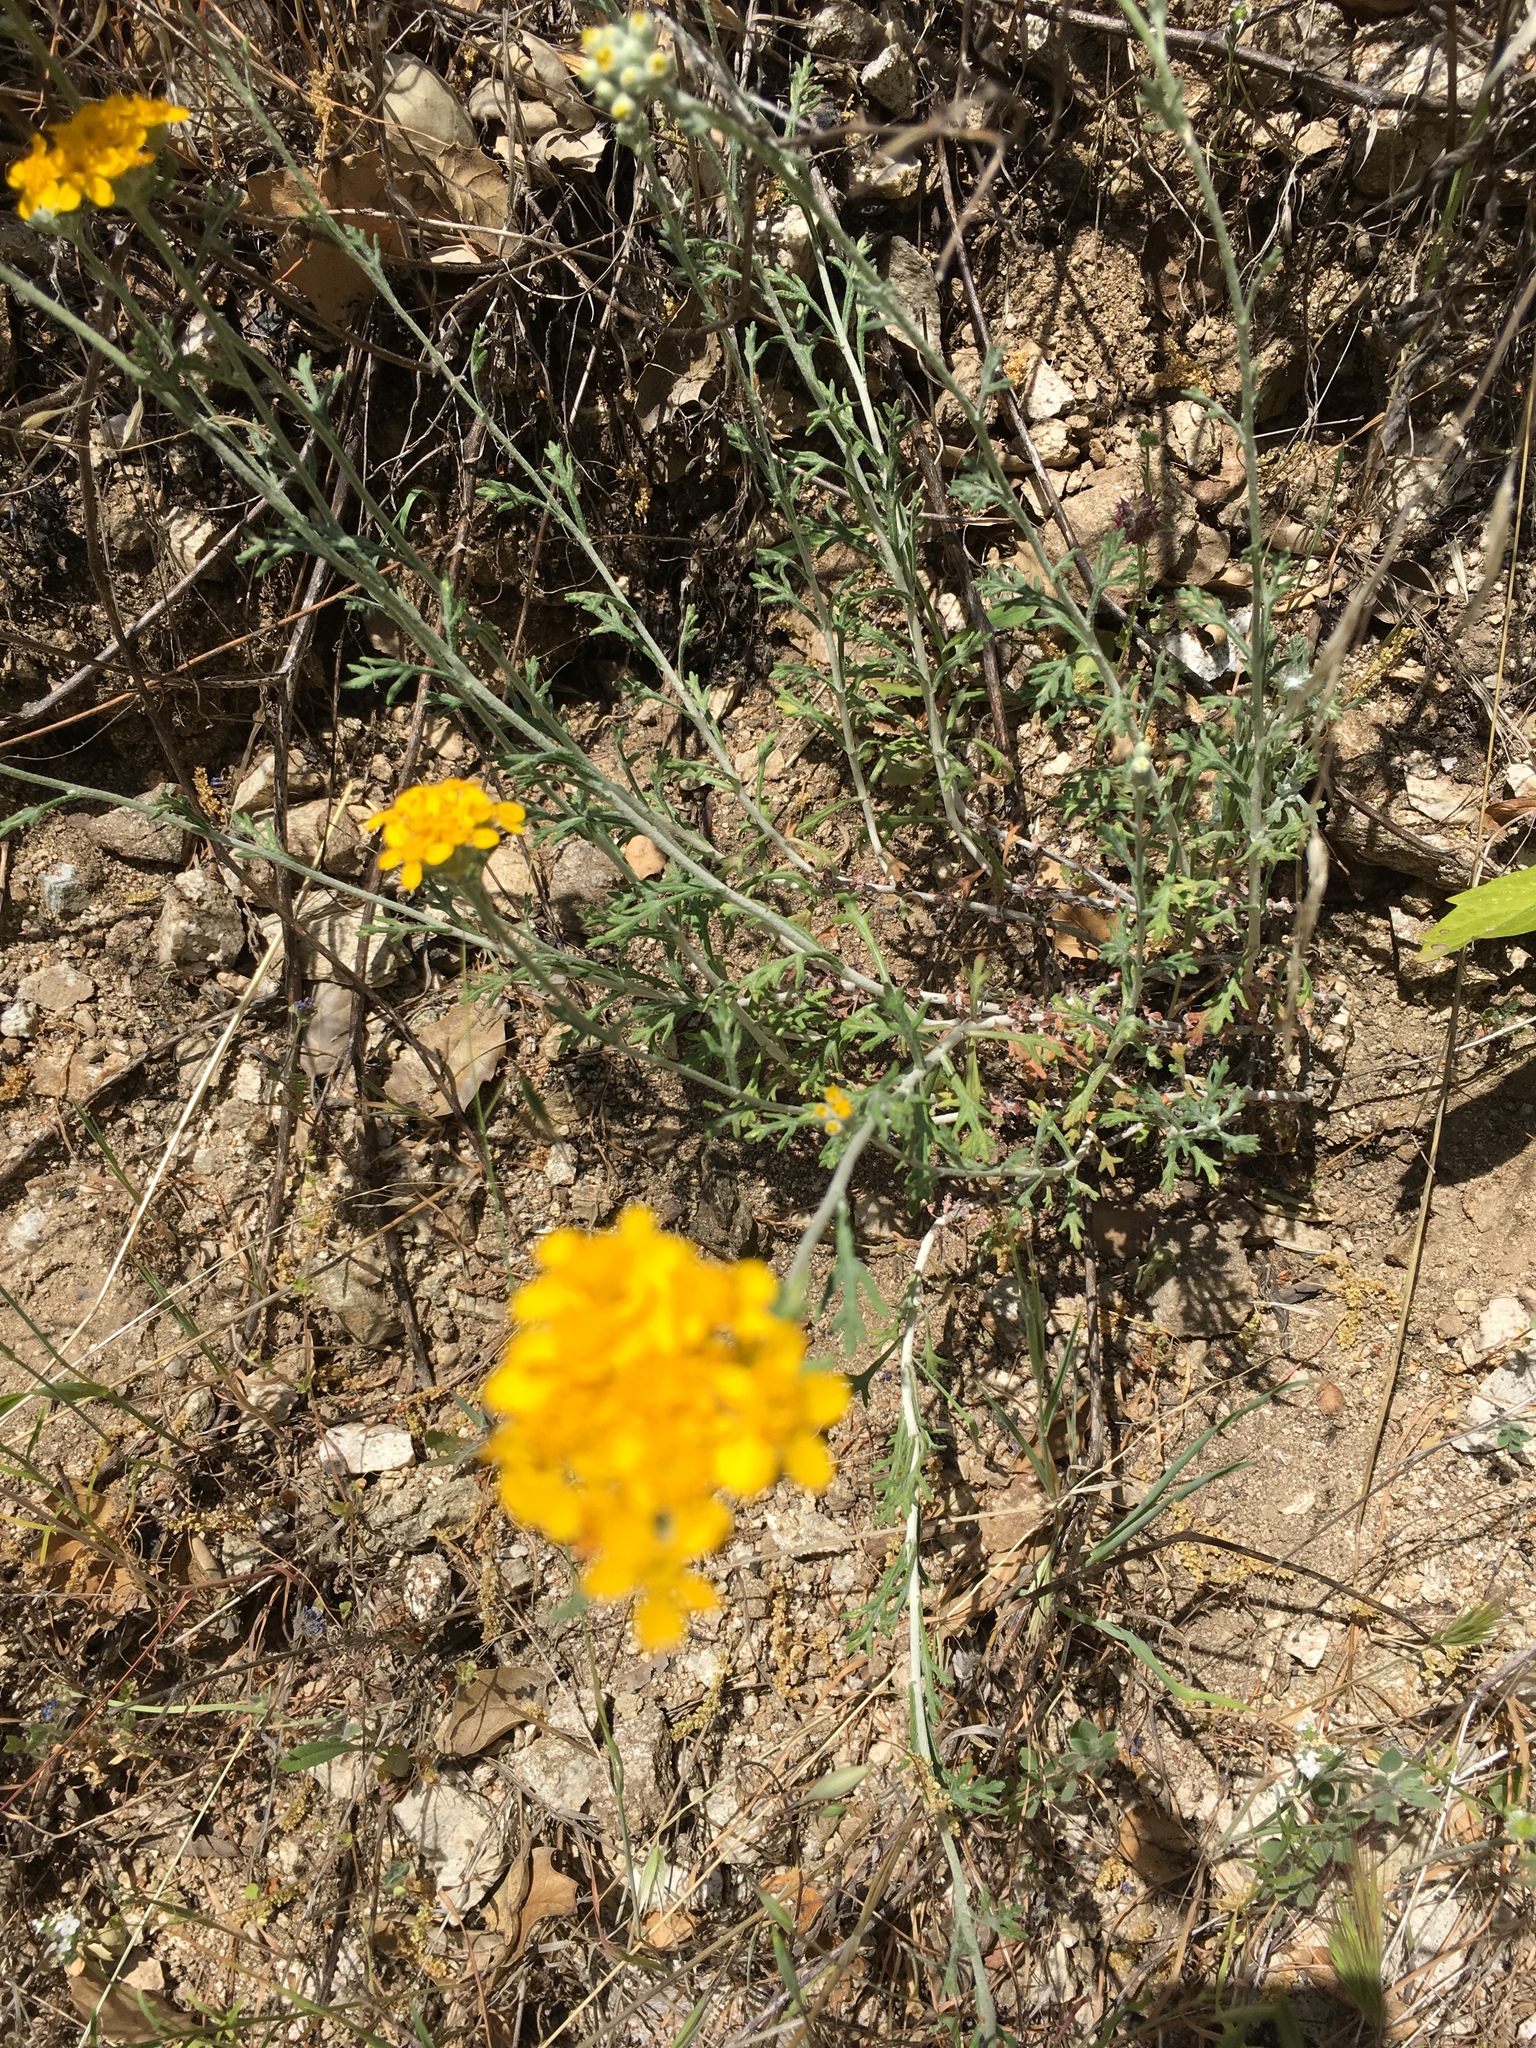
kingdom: Plantae
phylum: Tracheophyta
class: Magnoliopsida
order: Asterales
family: Asteraceae
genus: Eriophyllum
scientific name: Eriophyllum confertiflorum
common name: Golden-yarrow
